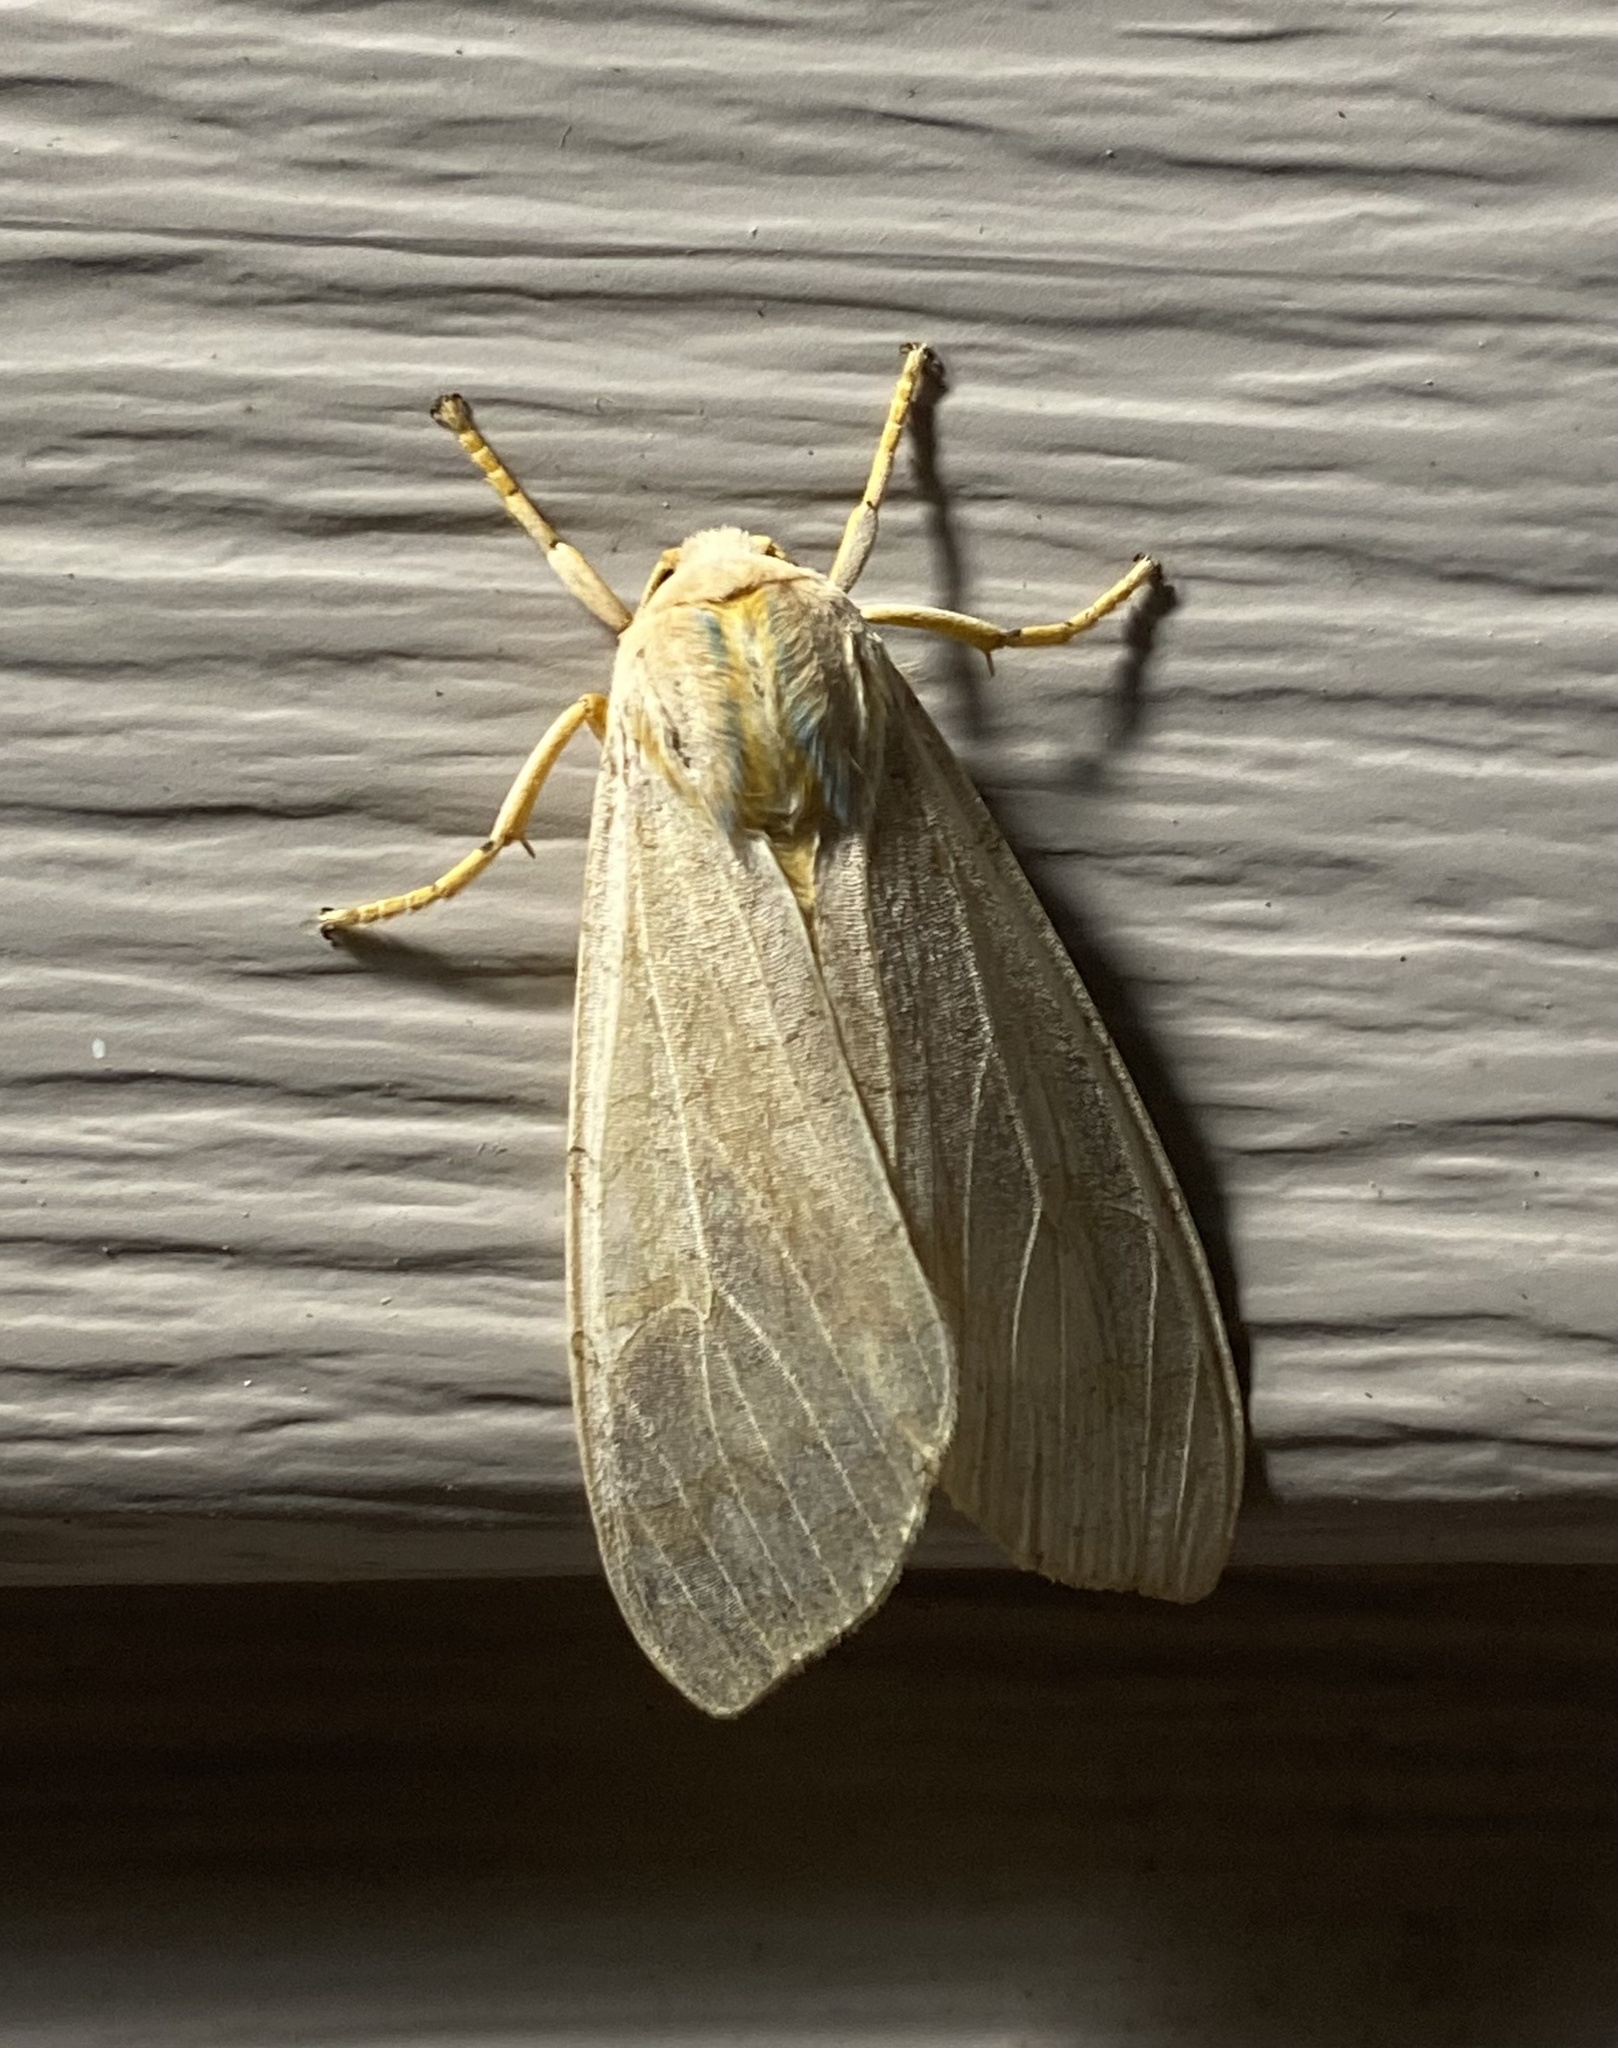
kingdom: Animalia
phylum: Arthropoda
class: Insecta
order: Lepidoptera
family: Erebidae
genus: Halysidota
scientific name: Halysidota tessellaris
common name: Banded tussock moth
